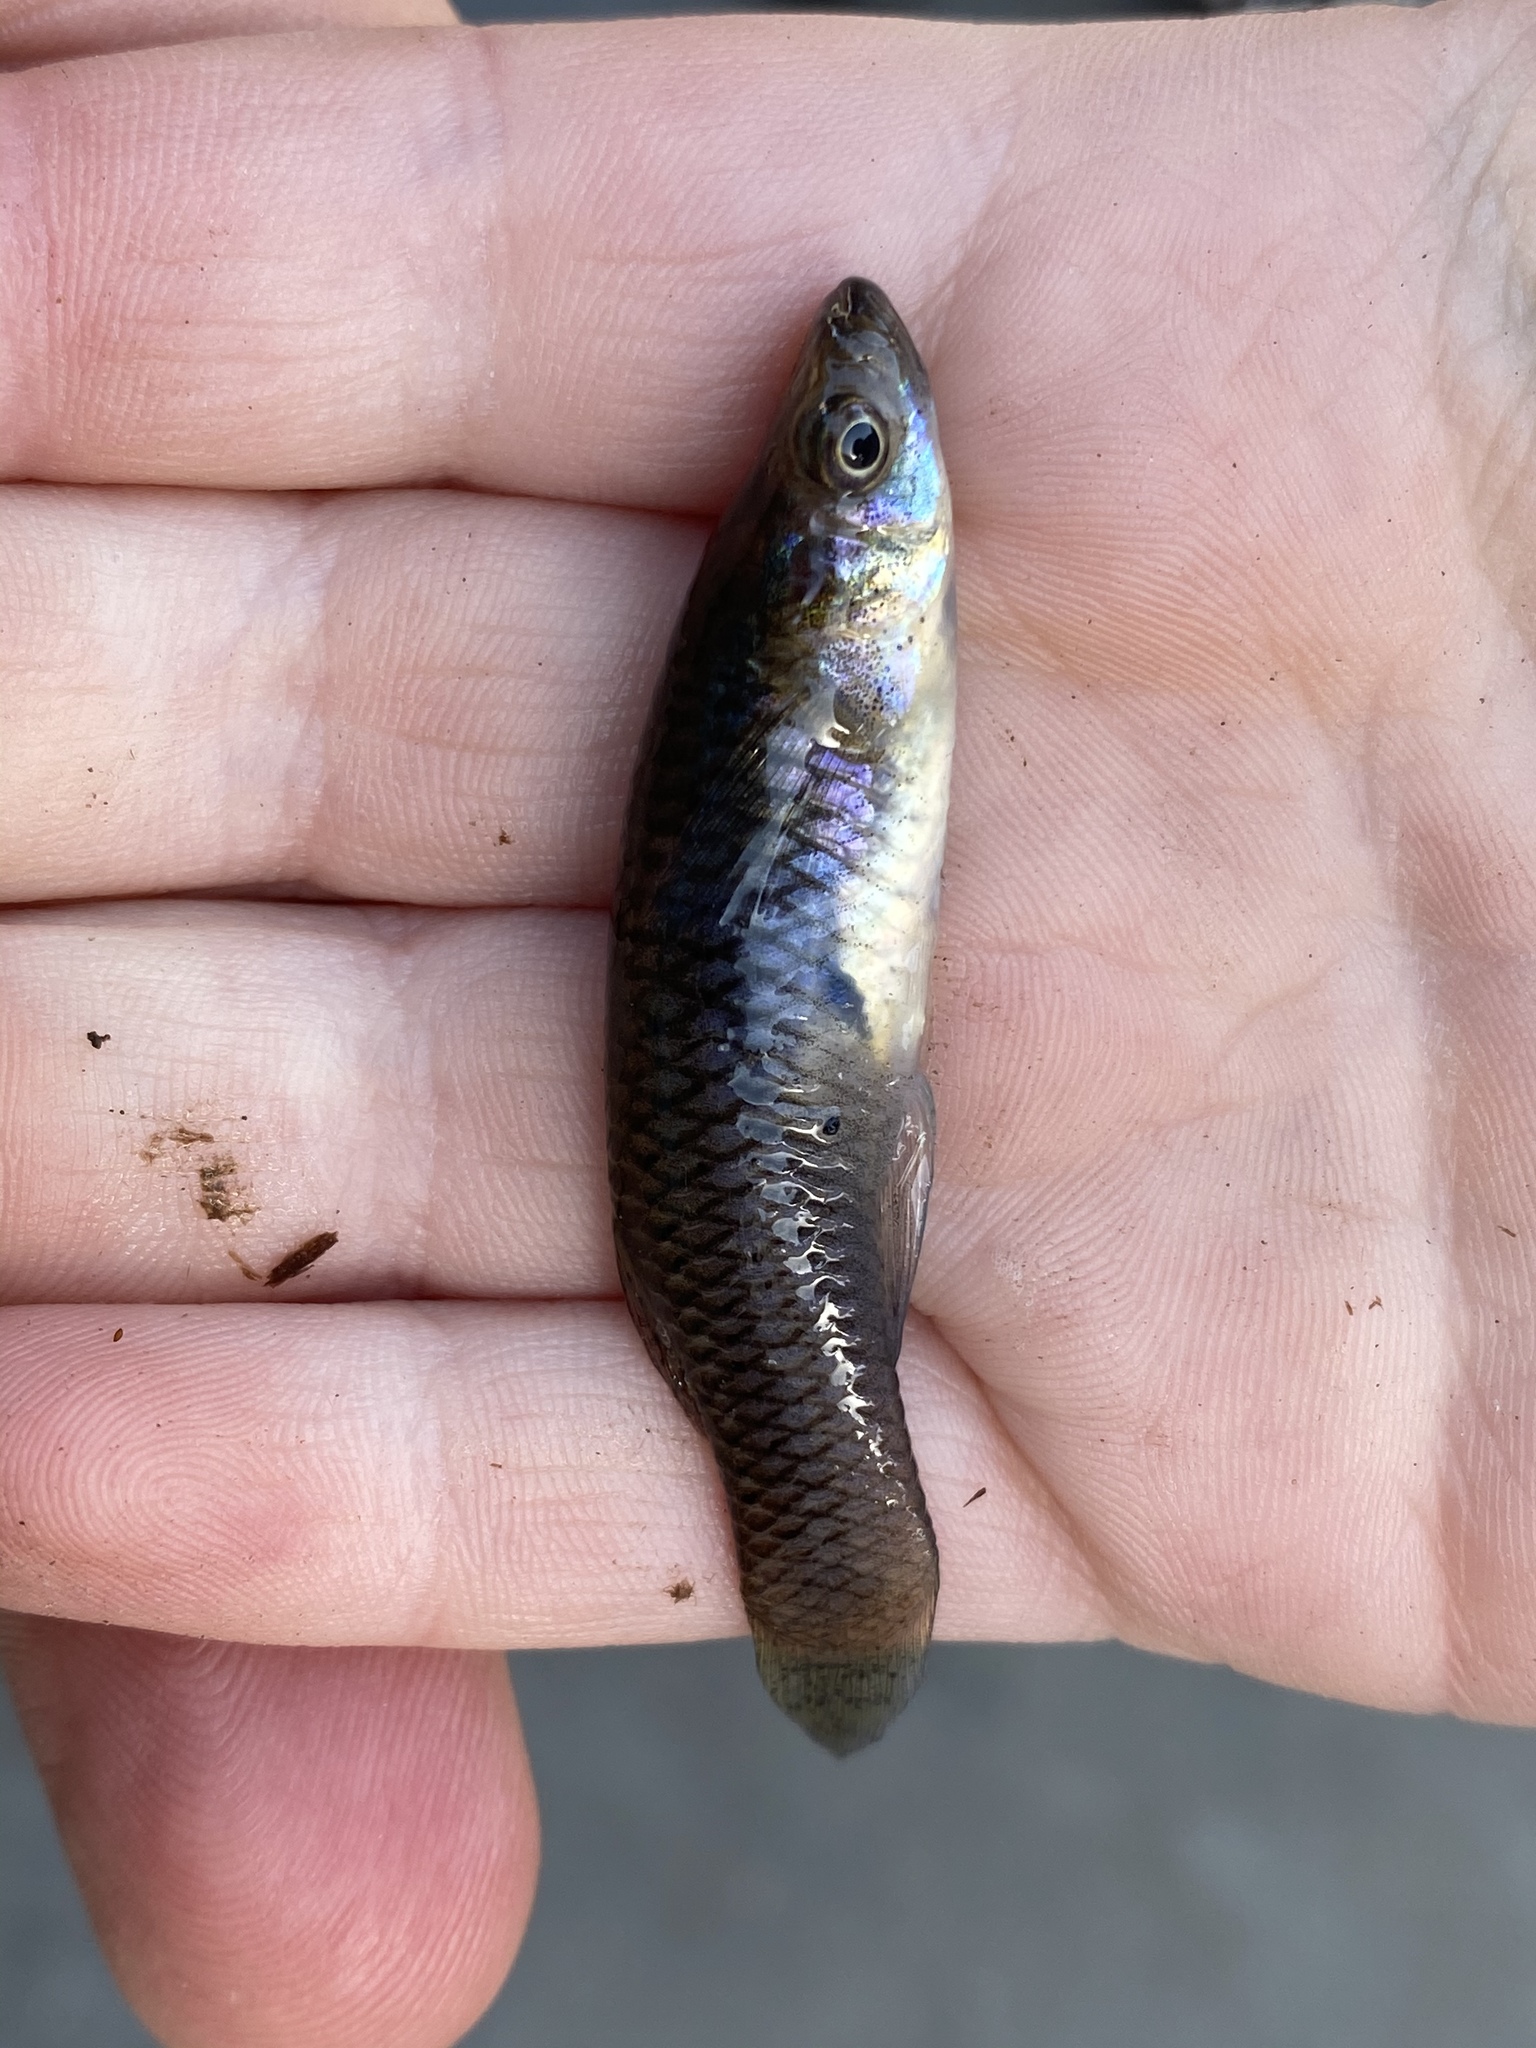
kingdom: Animalia
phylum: Chordata
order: Cyprinodontiformes
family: Poeciliidae
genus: Gambusia
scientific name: Gambusia affinis
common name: Mosquitofish
